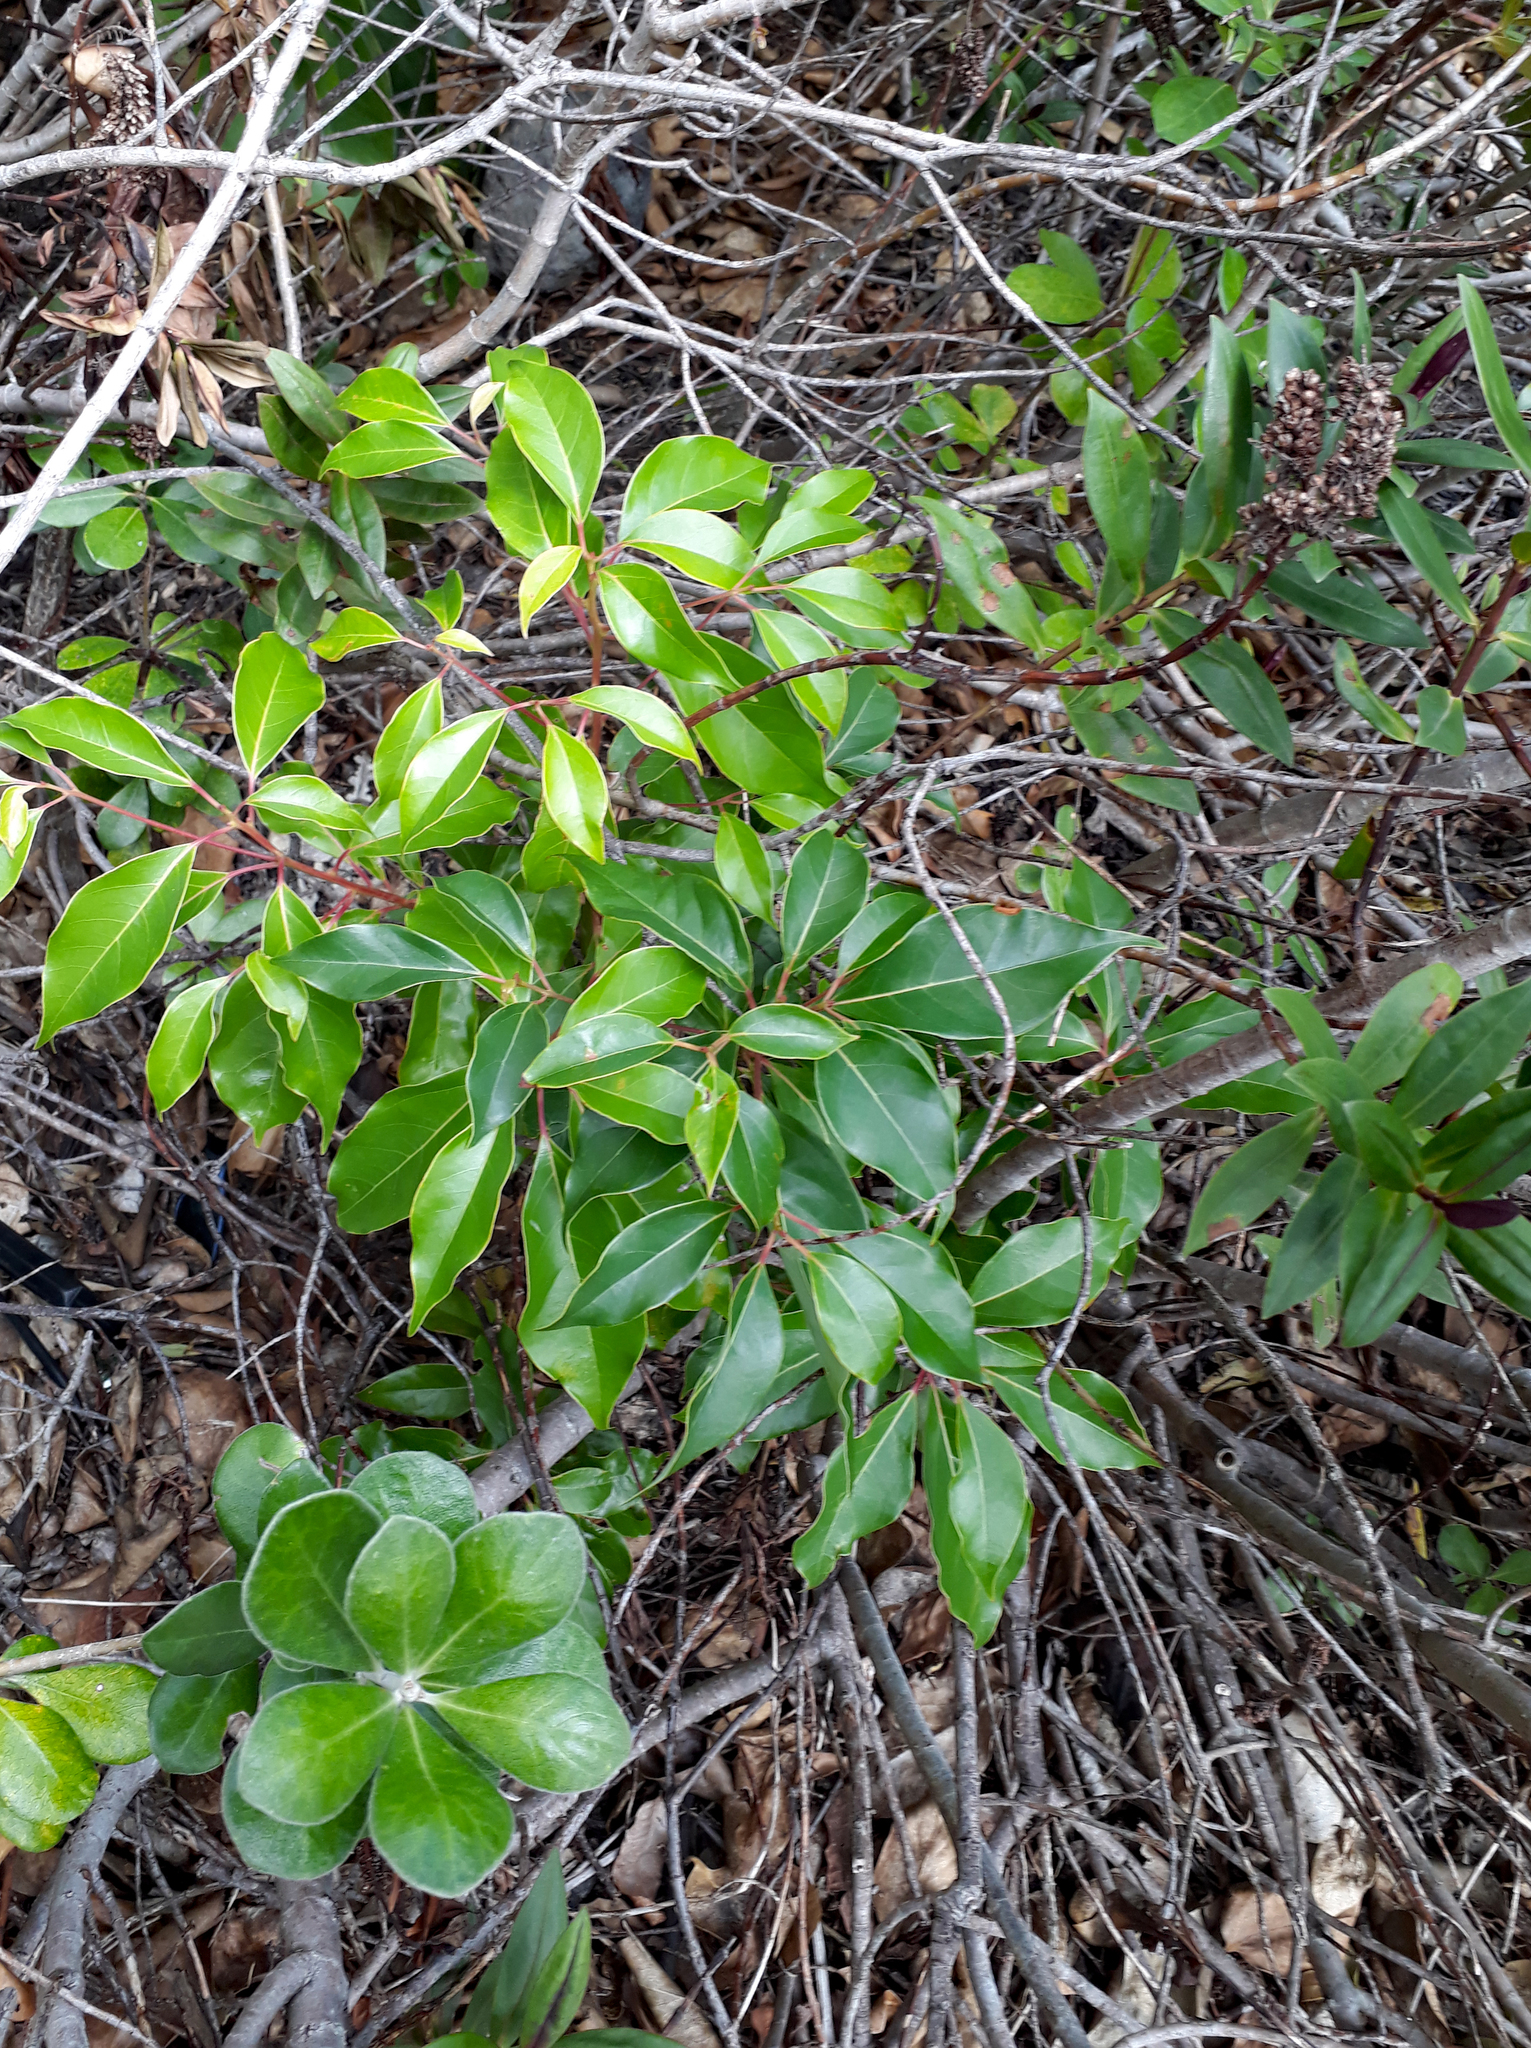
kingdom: Plantae
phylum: Tracheophyta
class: Magnoliopsida
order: Laurales
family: Lauraceae
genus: Cinnamomum
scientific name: Cinnamomum camphora
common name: Camphortree
